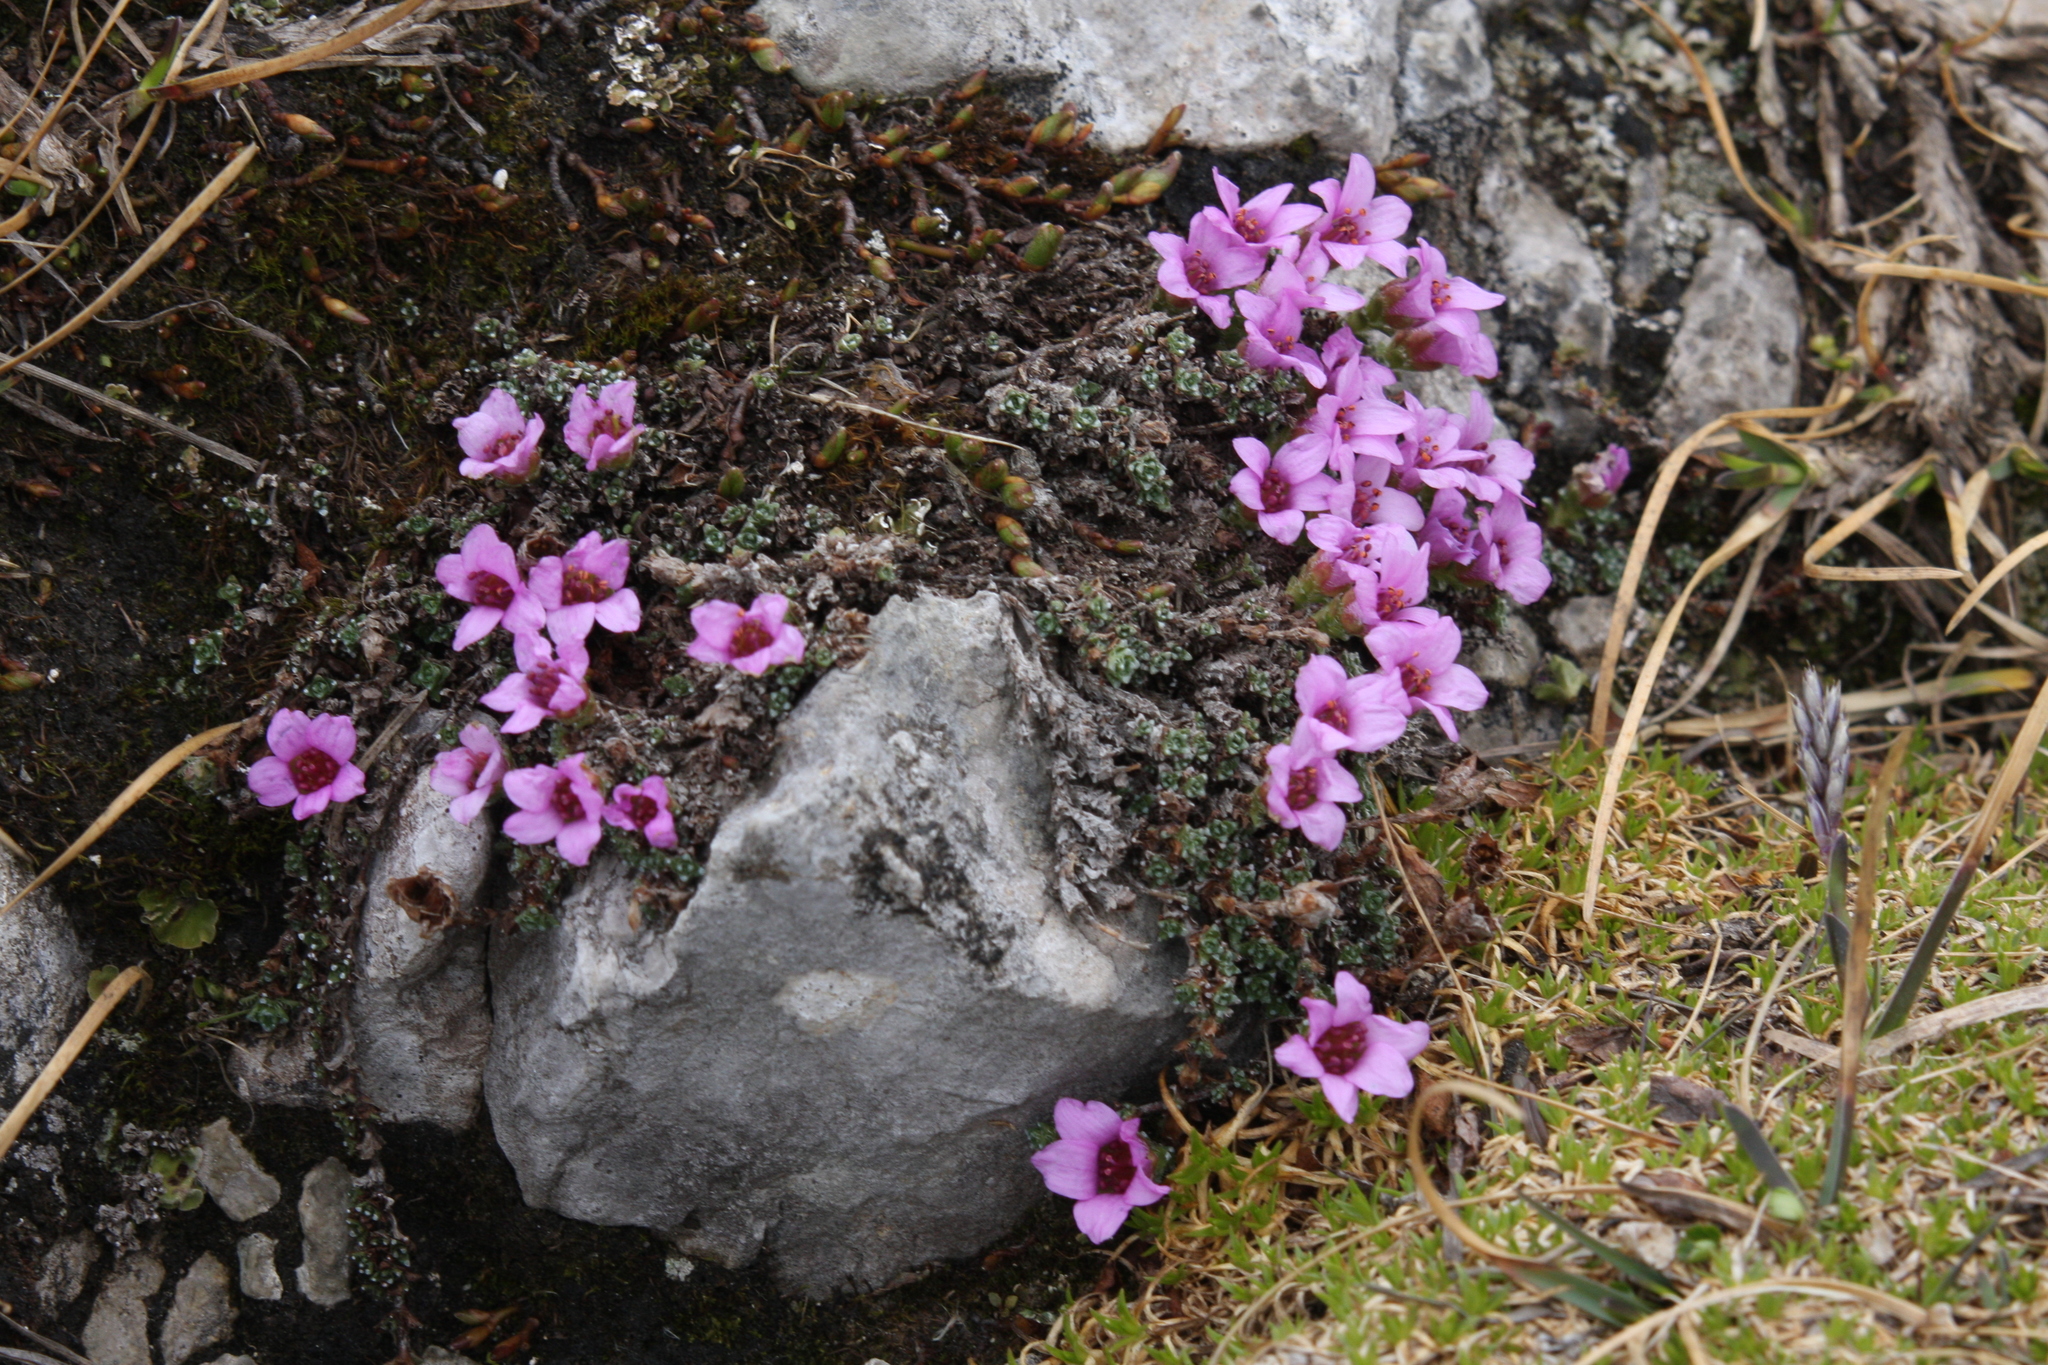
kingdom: Plantae
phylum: Tracheophyta
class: Magnoliopsida
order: Saxifragales
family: Saxifragaceae
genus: Saxifraga
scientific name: Saxifraga oppositifolia
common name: Purple saxifrage
